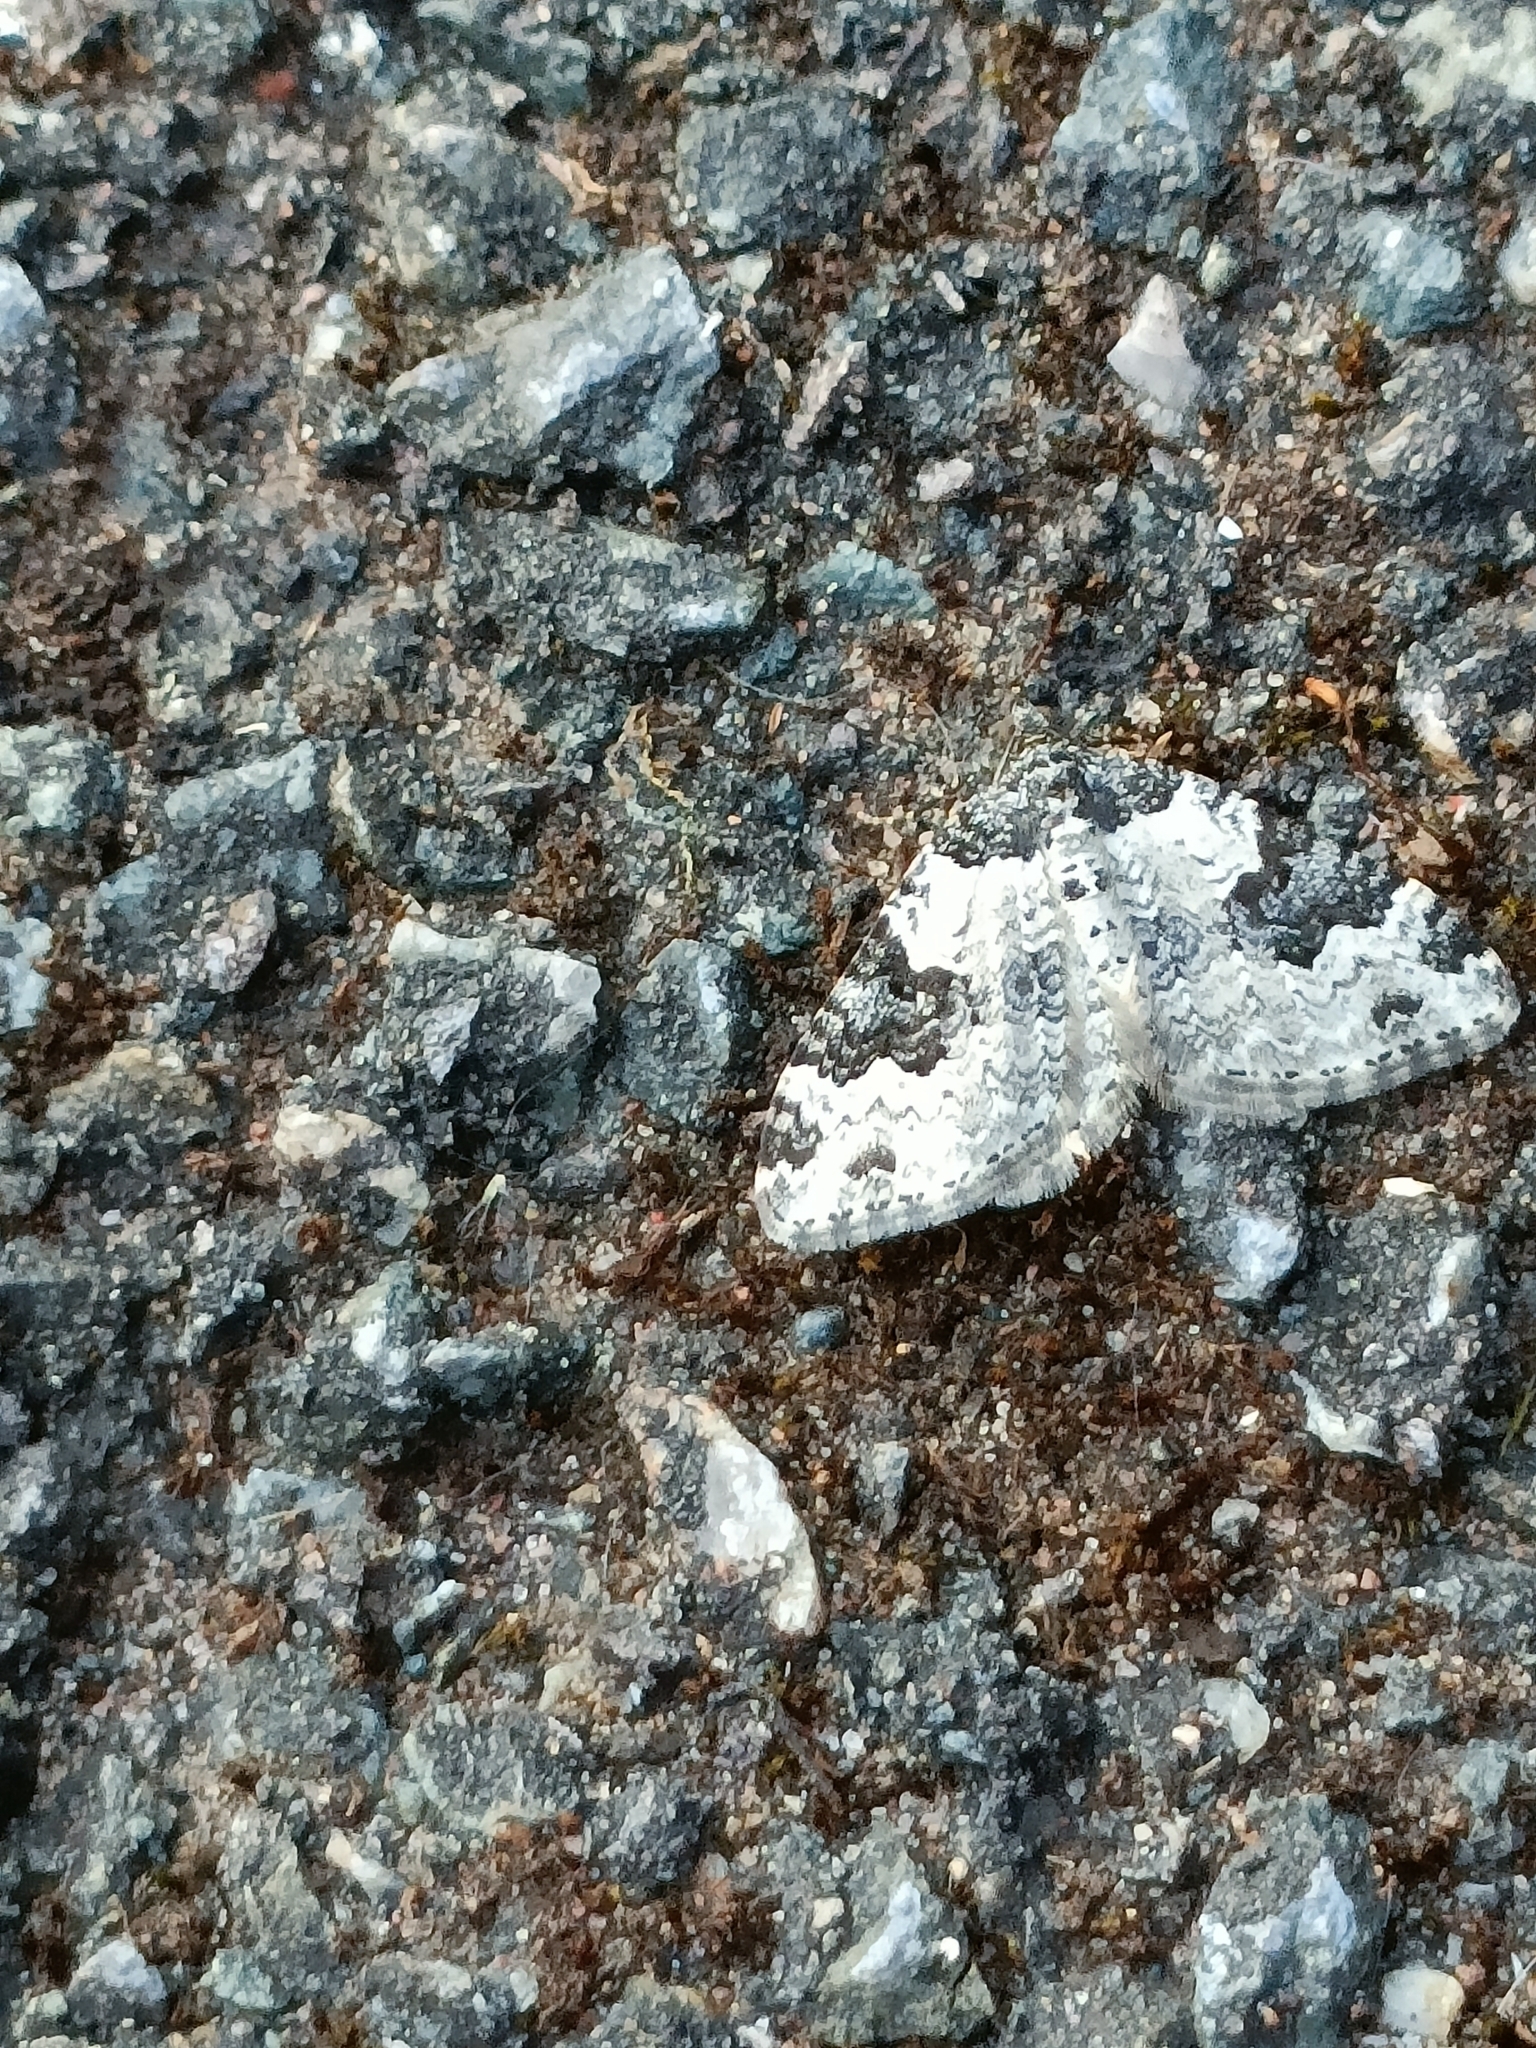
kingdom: Animalia
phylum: Arthropoda
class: Insecta
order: Lepidoptera
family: Geometridae
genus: Xanthorhoe
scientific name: Xanthorhoe fluctuata
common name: Garden carpet
